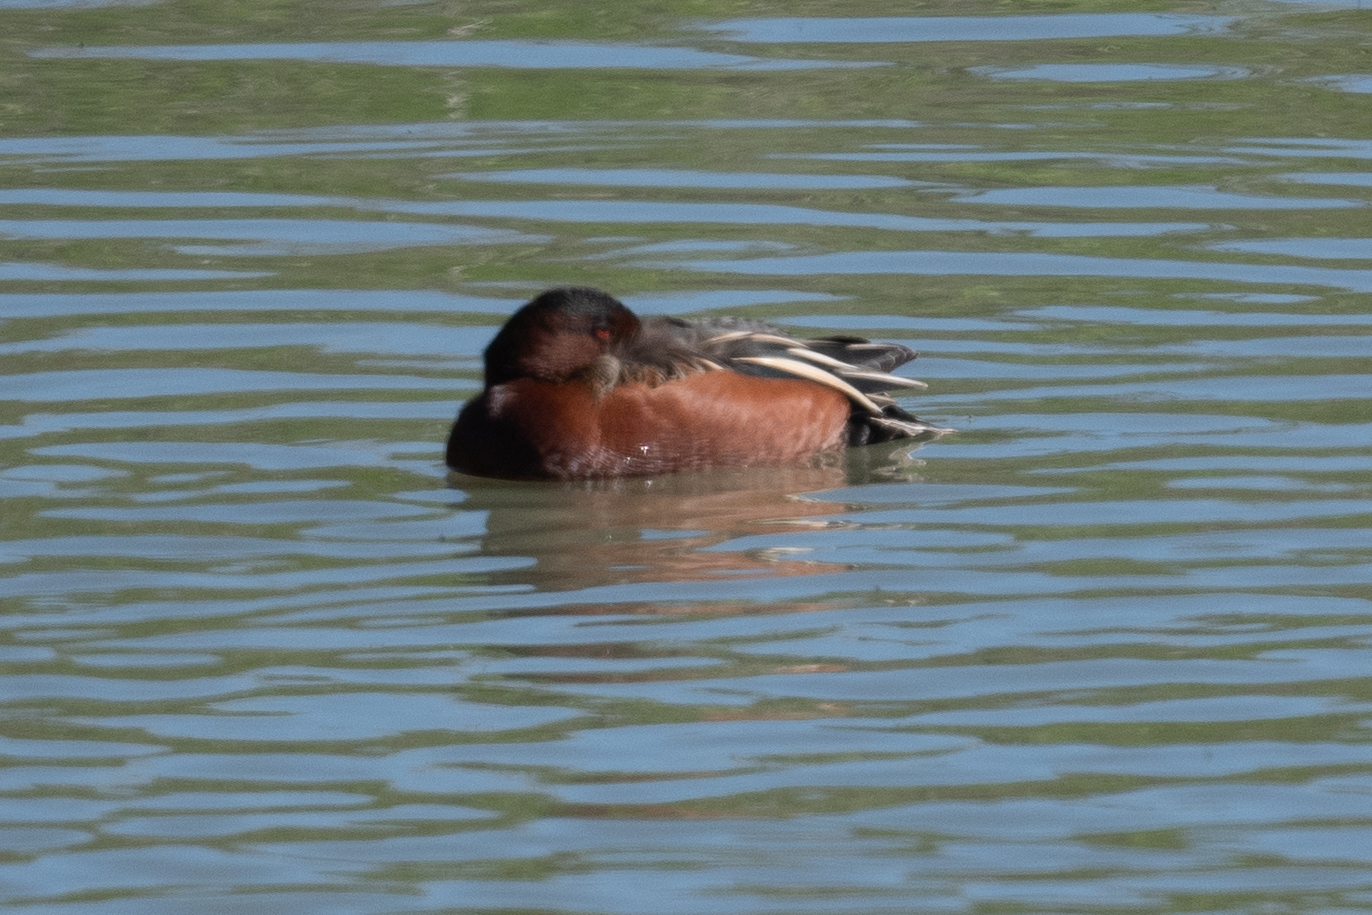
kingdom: Animalia
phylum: Chordata
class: Aves
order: Anseriformes
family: Anatidae
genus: Spatula
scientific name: Spatula cyanoptera
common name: Cinnamon teal
